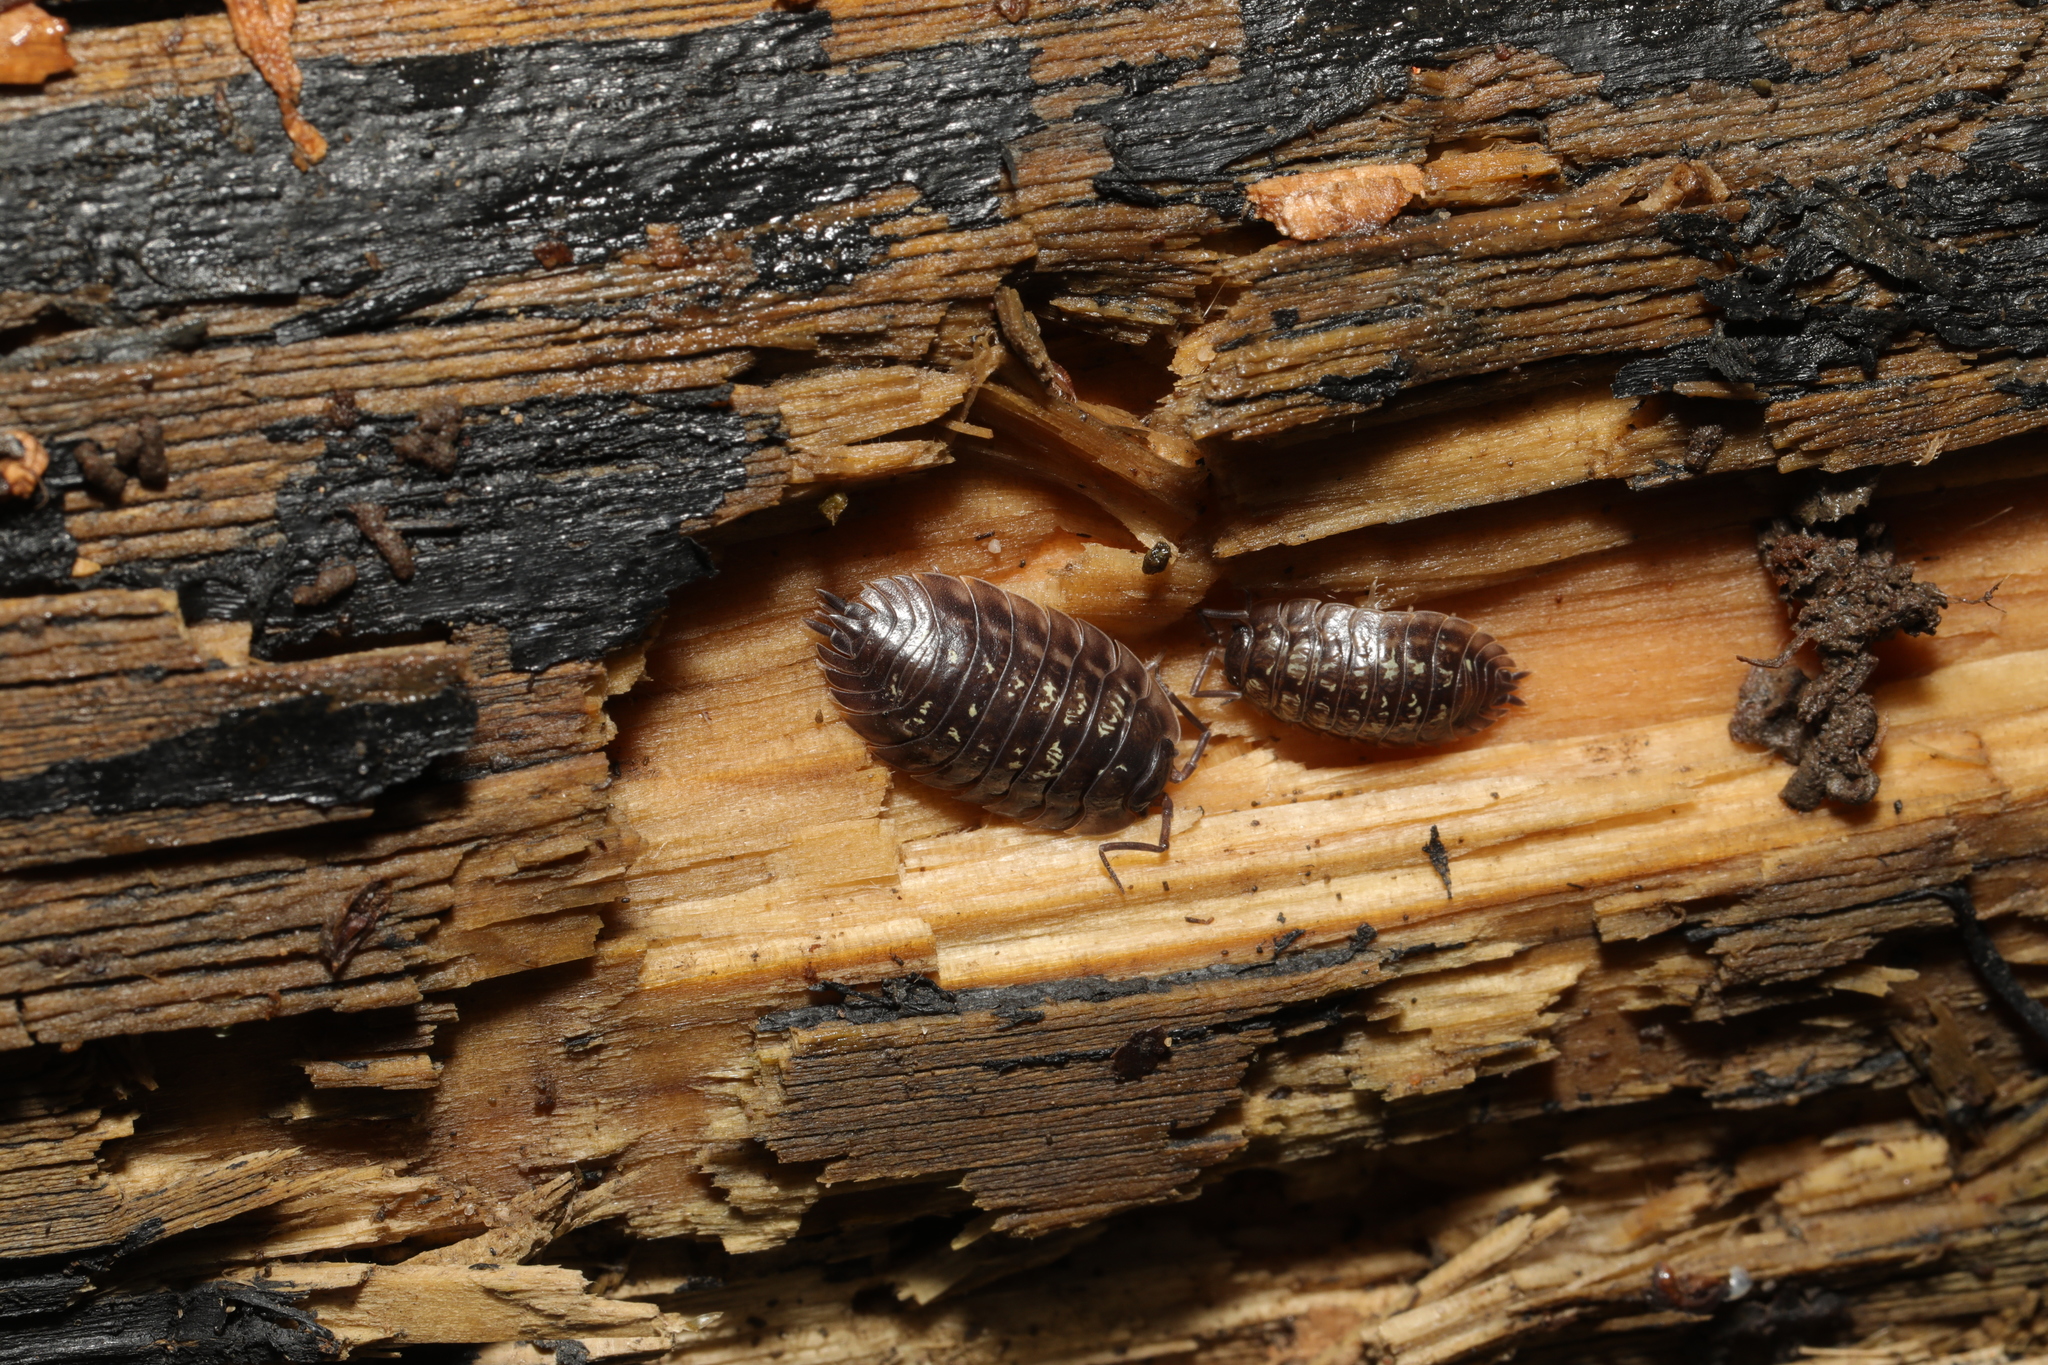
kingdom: Animalia
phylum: Arthropoda
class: Malacostraca
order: Isopoda
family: Oniscidae
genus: Oniscus
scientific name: Oniscus asellus
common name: Common shiny woodlouse
